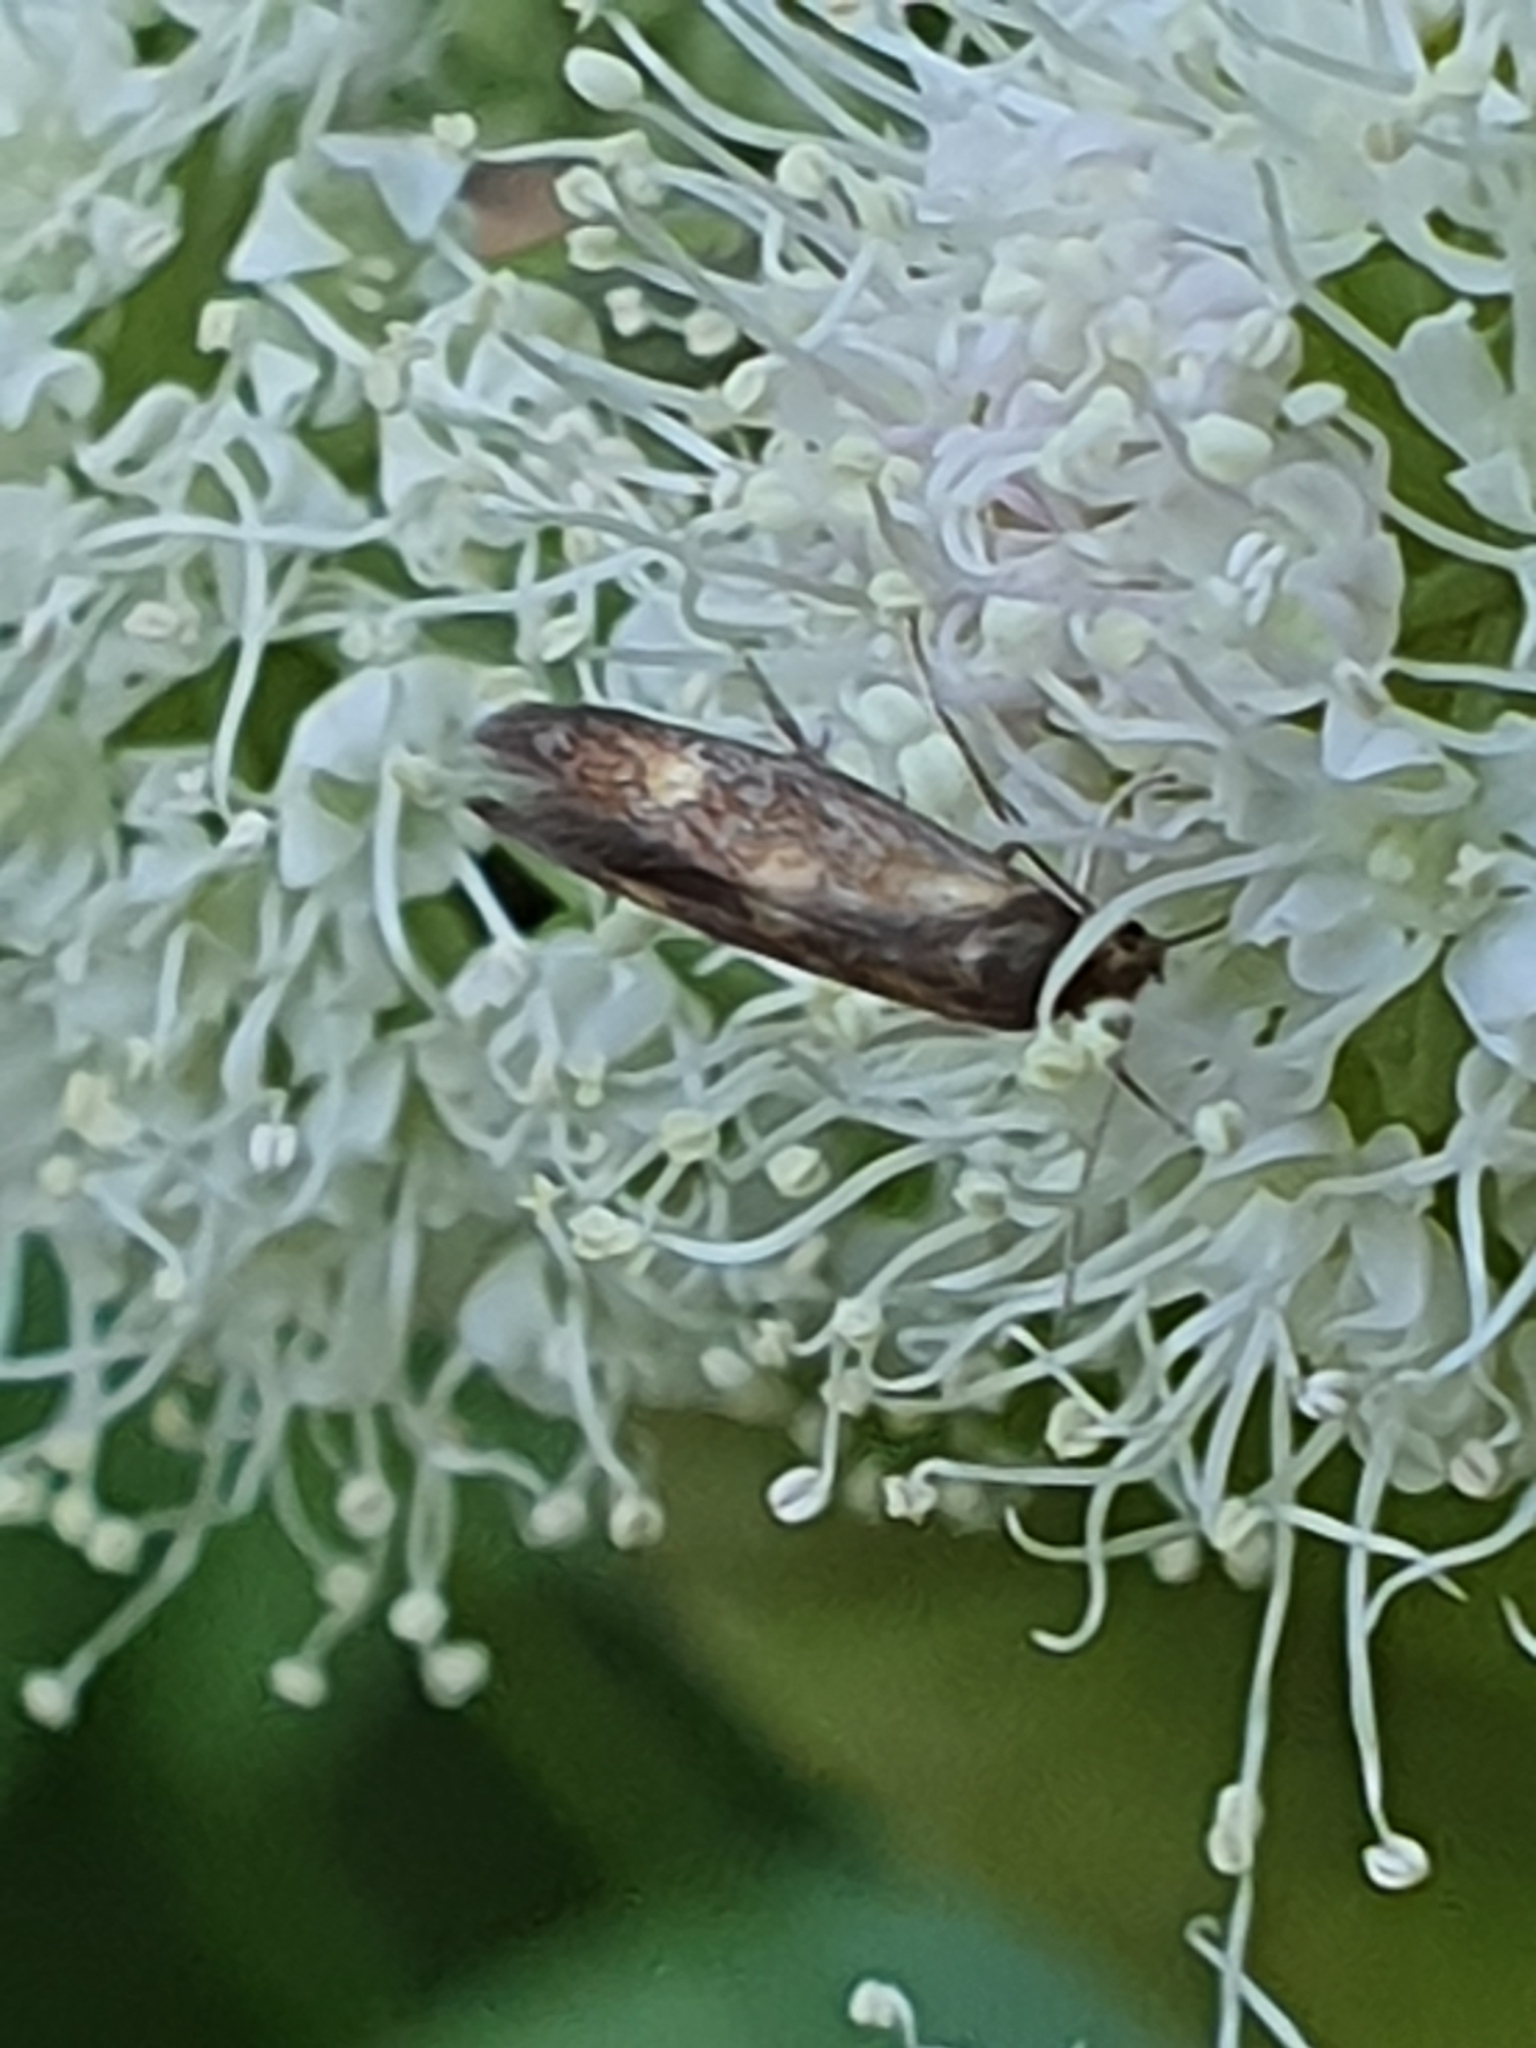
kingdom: Animalia
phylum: Arthropoda
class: Insecta
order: Lepidoptera
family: Epermeniidae
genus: Phaulernis
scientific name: Phaulernis fulviguttella
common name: Yellow-spotted lance-wing
